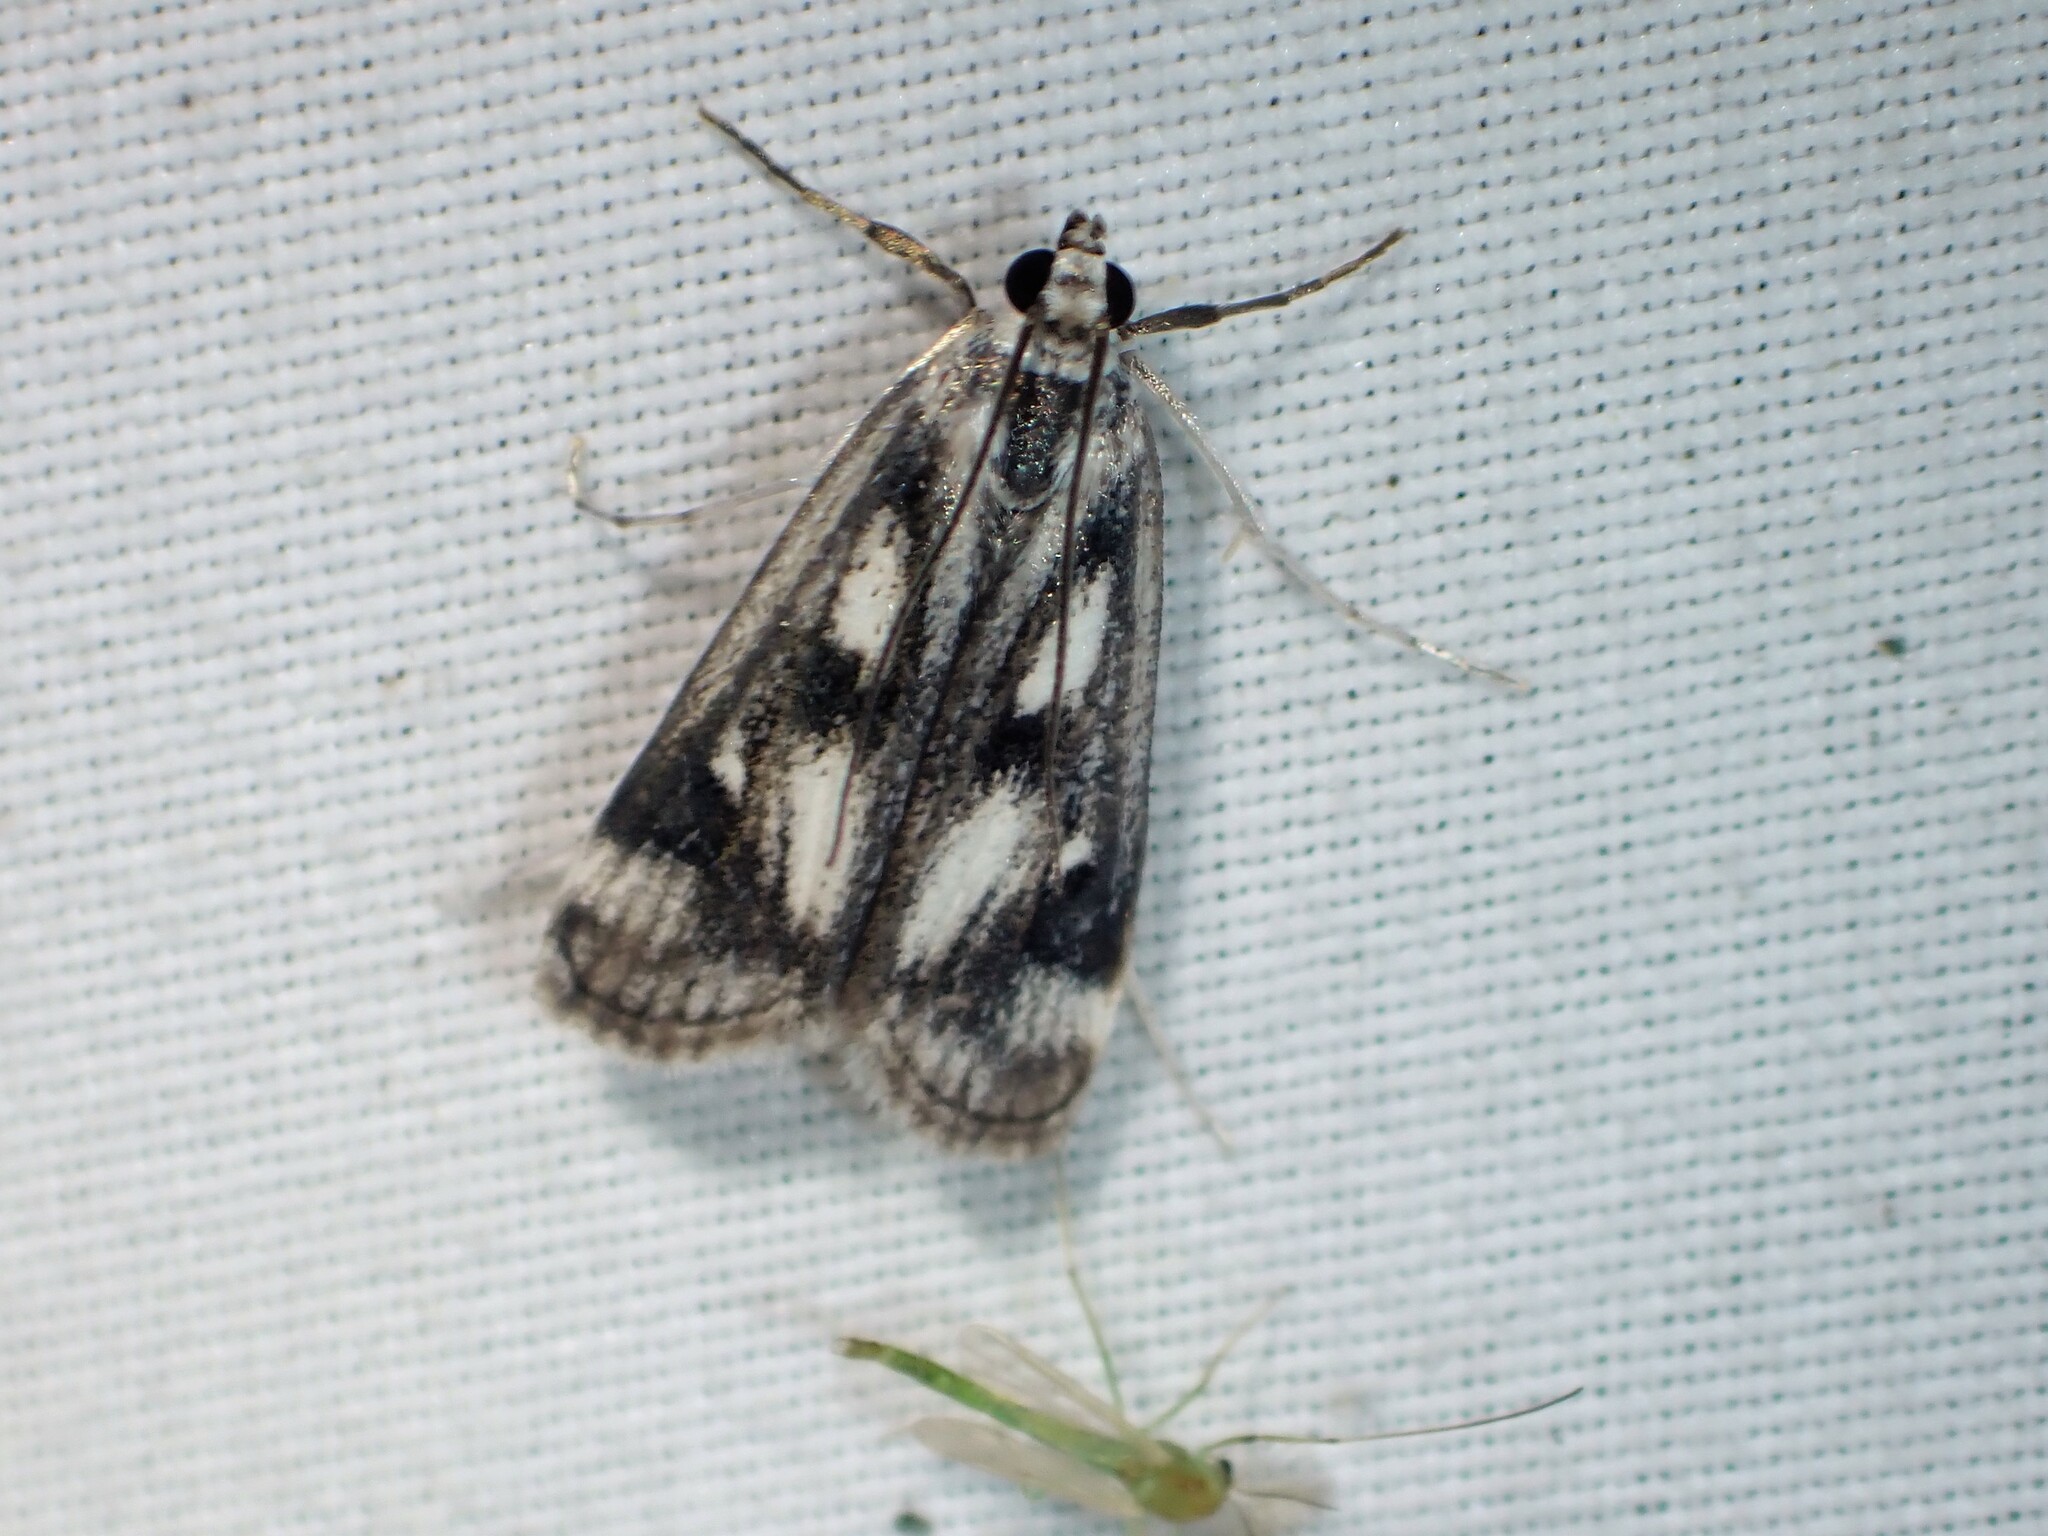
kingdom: Animalia
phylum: Arthropoda
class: Insecta
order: Lepidoptera
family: Crambidae
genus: Parapoynx
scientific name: Parapoynx maculalis
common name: Polymorphic pondweed moth
